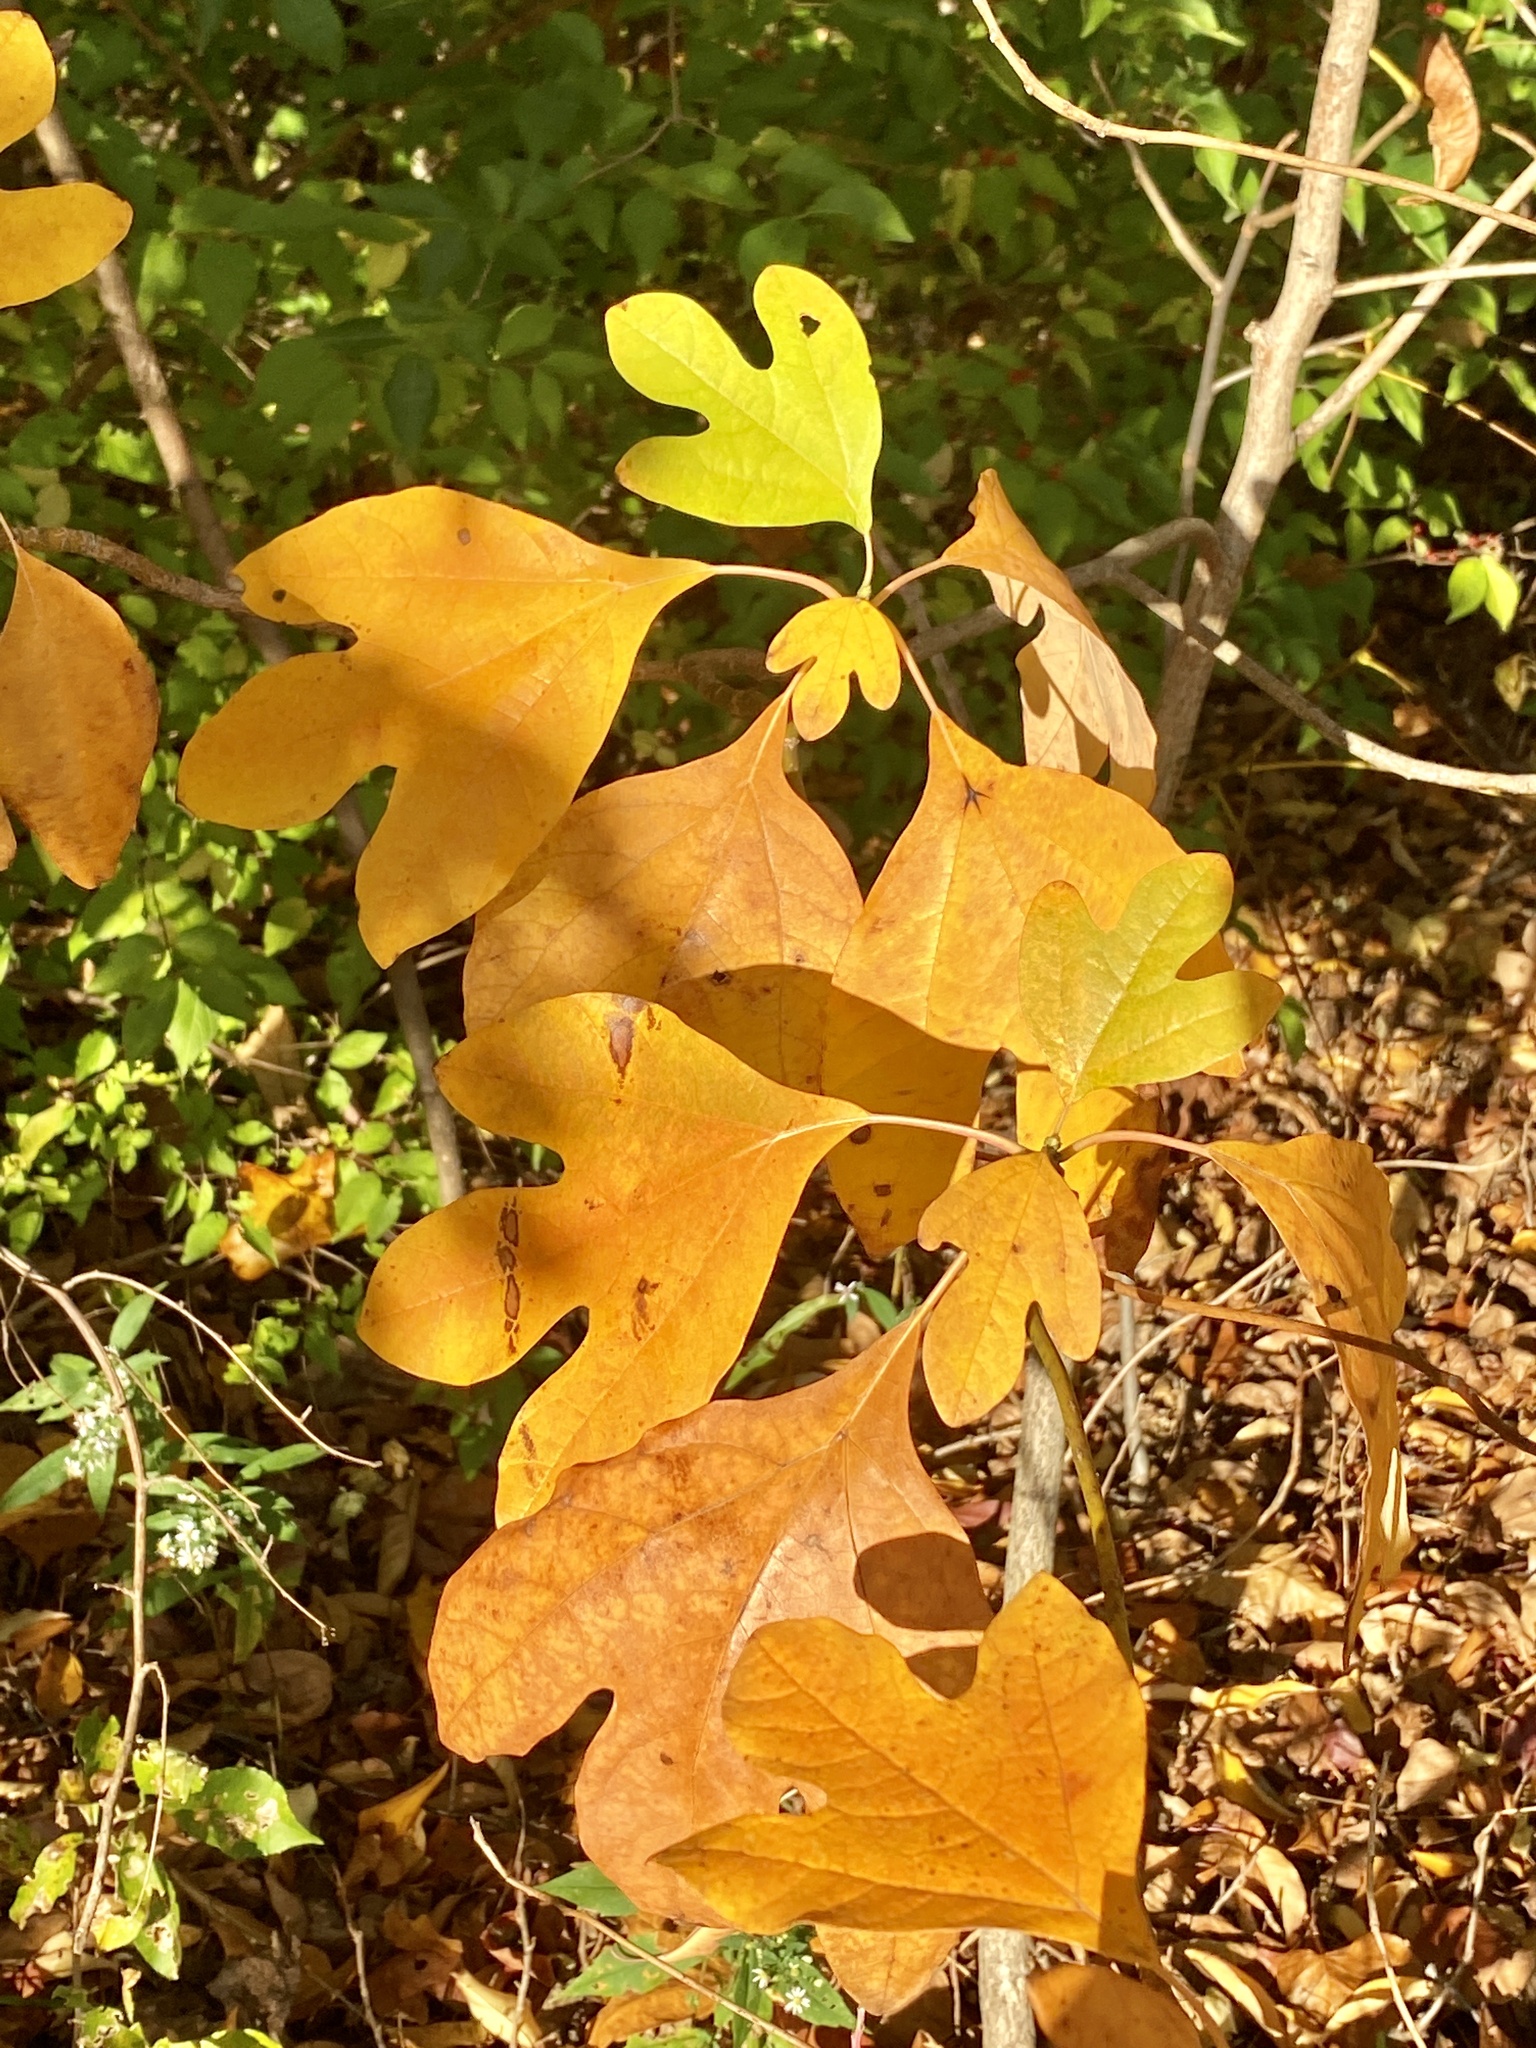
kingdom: Plantae
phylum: Tracheophyta
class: Magnoliopsida
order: Laurales
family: Lauraceae
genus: Sassafras
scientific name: Sassafras albidum
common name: Sassafras
